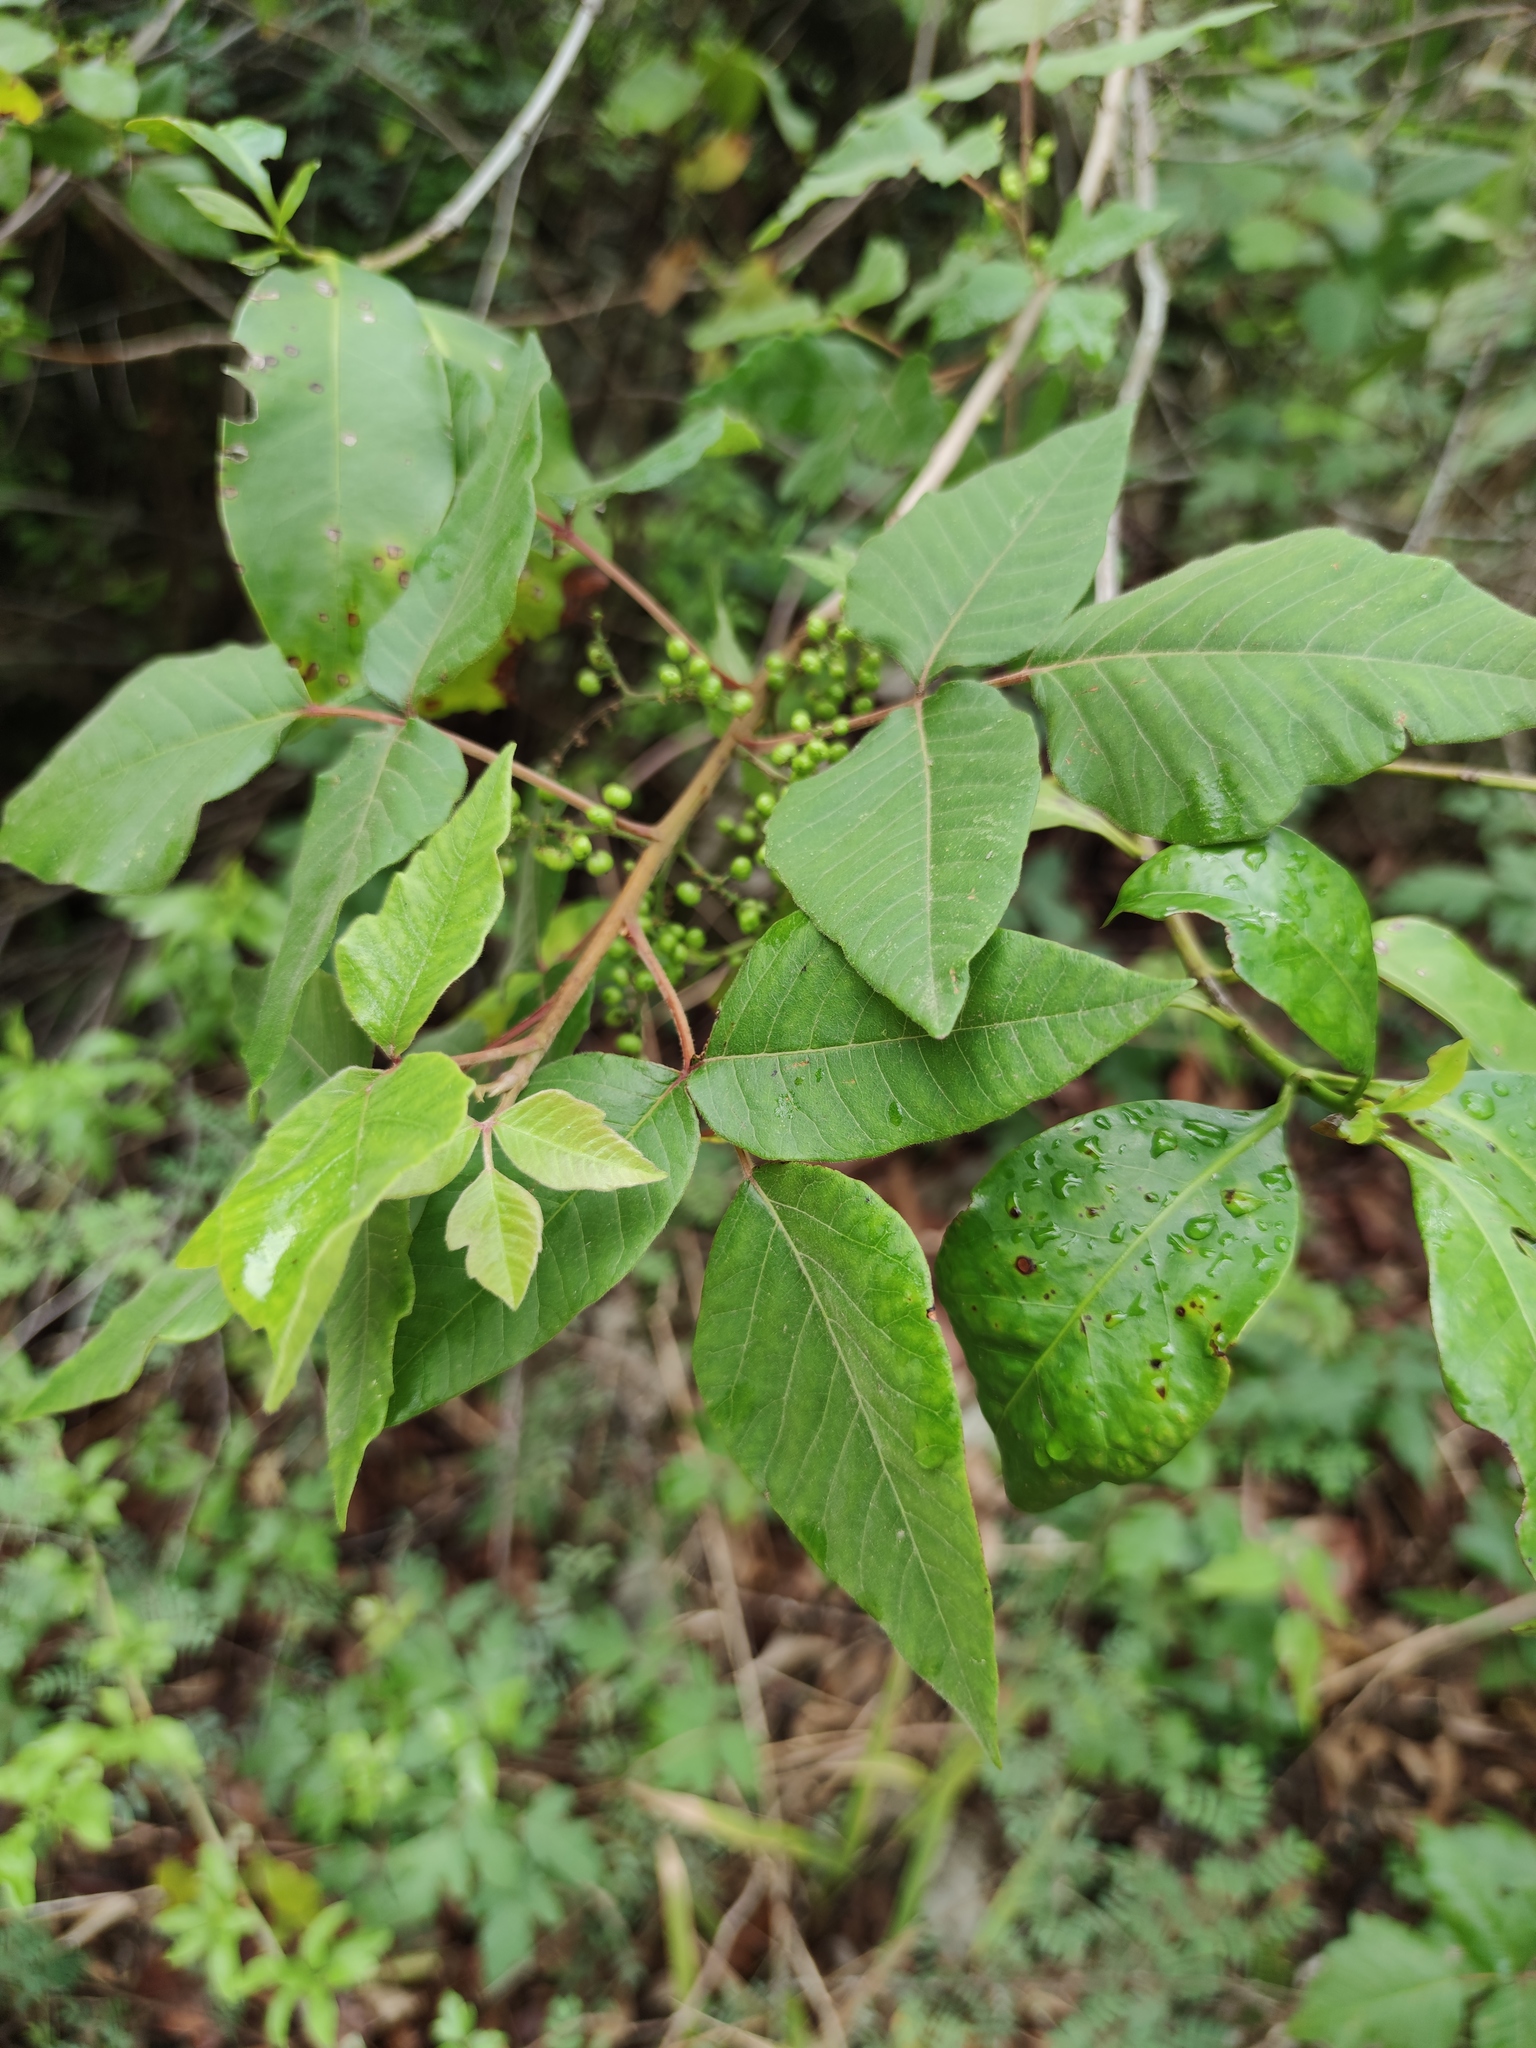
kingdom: Plantae
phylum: Tracheophyta
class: Magnoliopsida
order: Sapindales
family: Anacardiaceae
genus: Toxicodendron
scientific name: Toxicodendron radicans
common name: Poison ivy
